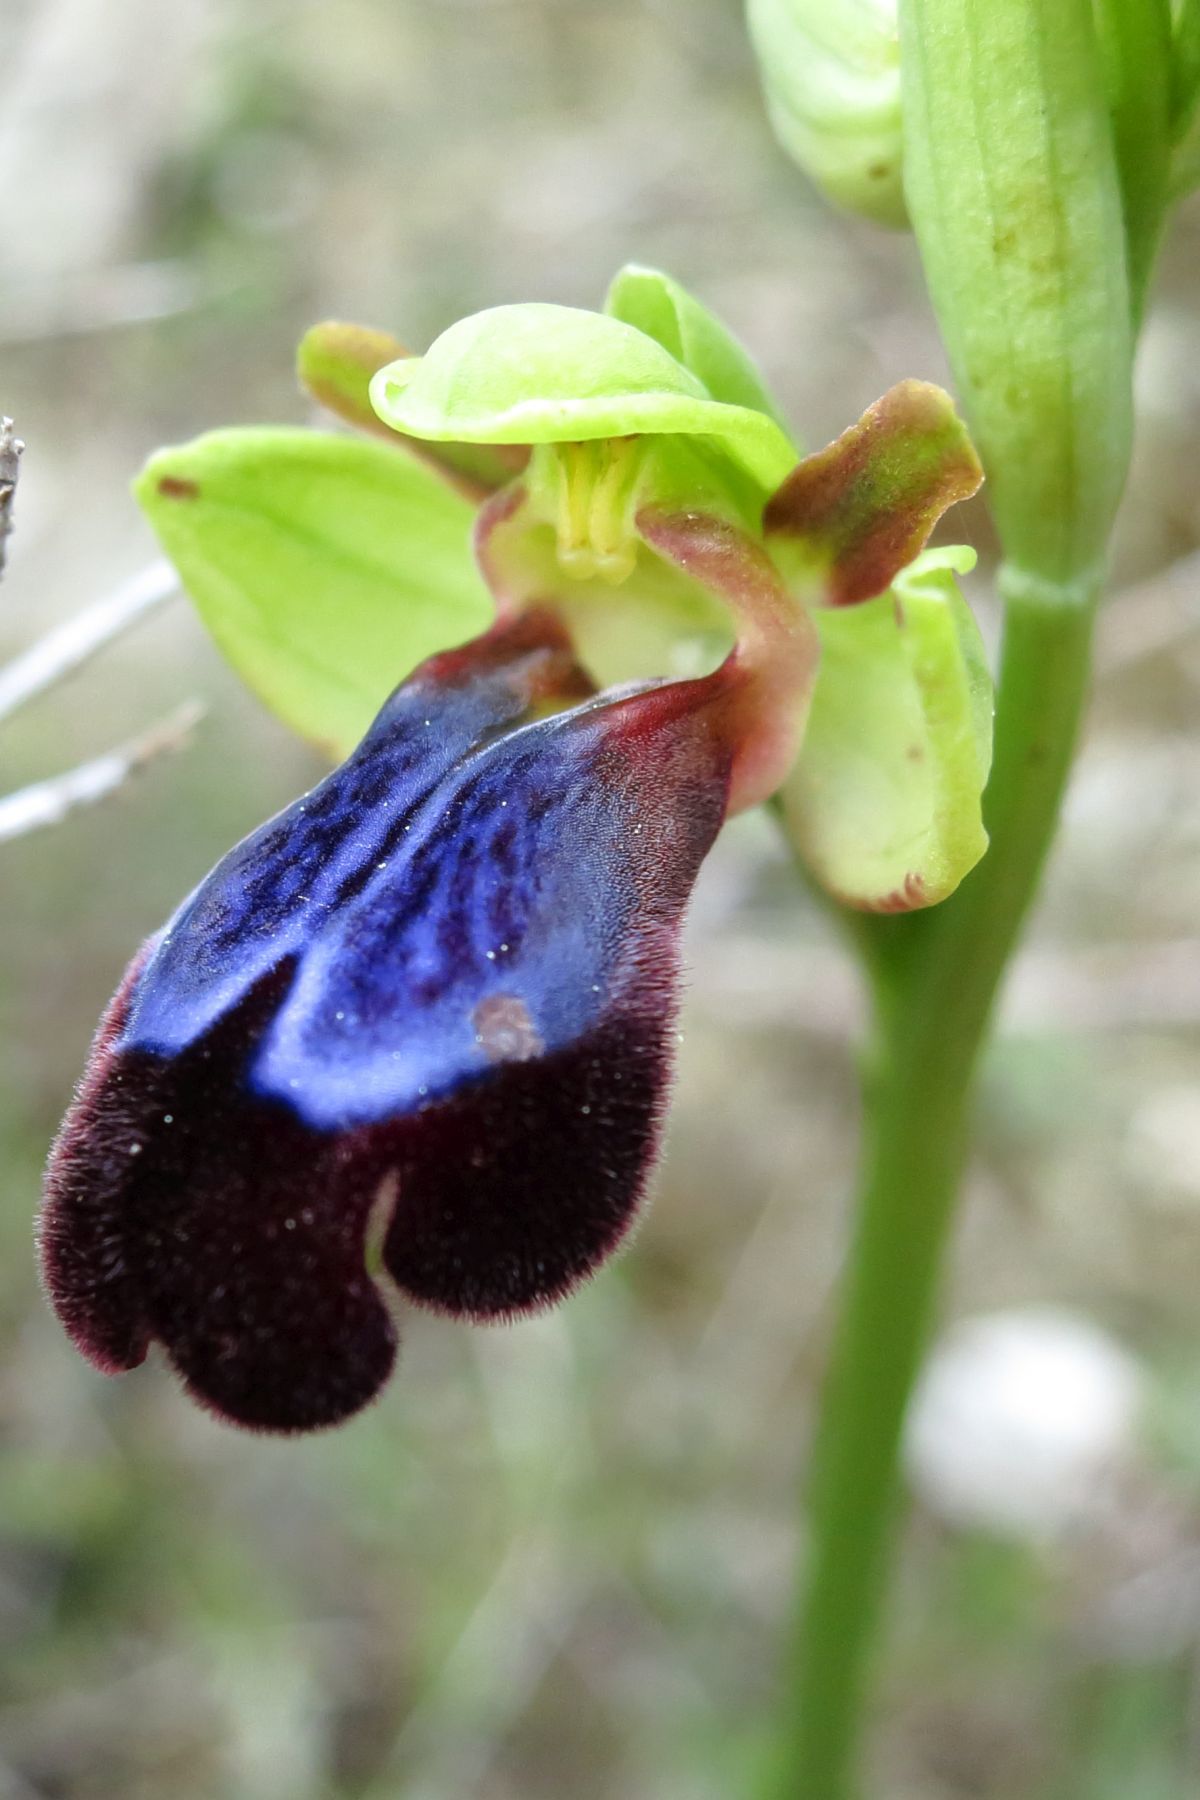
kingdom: Plantae
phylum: Tracheophyta
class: Liliopsida
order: Asparagales
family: Orchidaceae
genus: Ophrys
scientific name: Ophrys fusca
